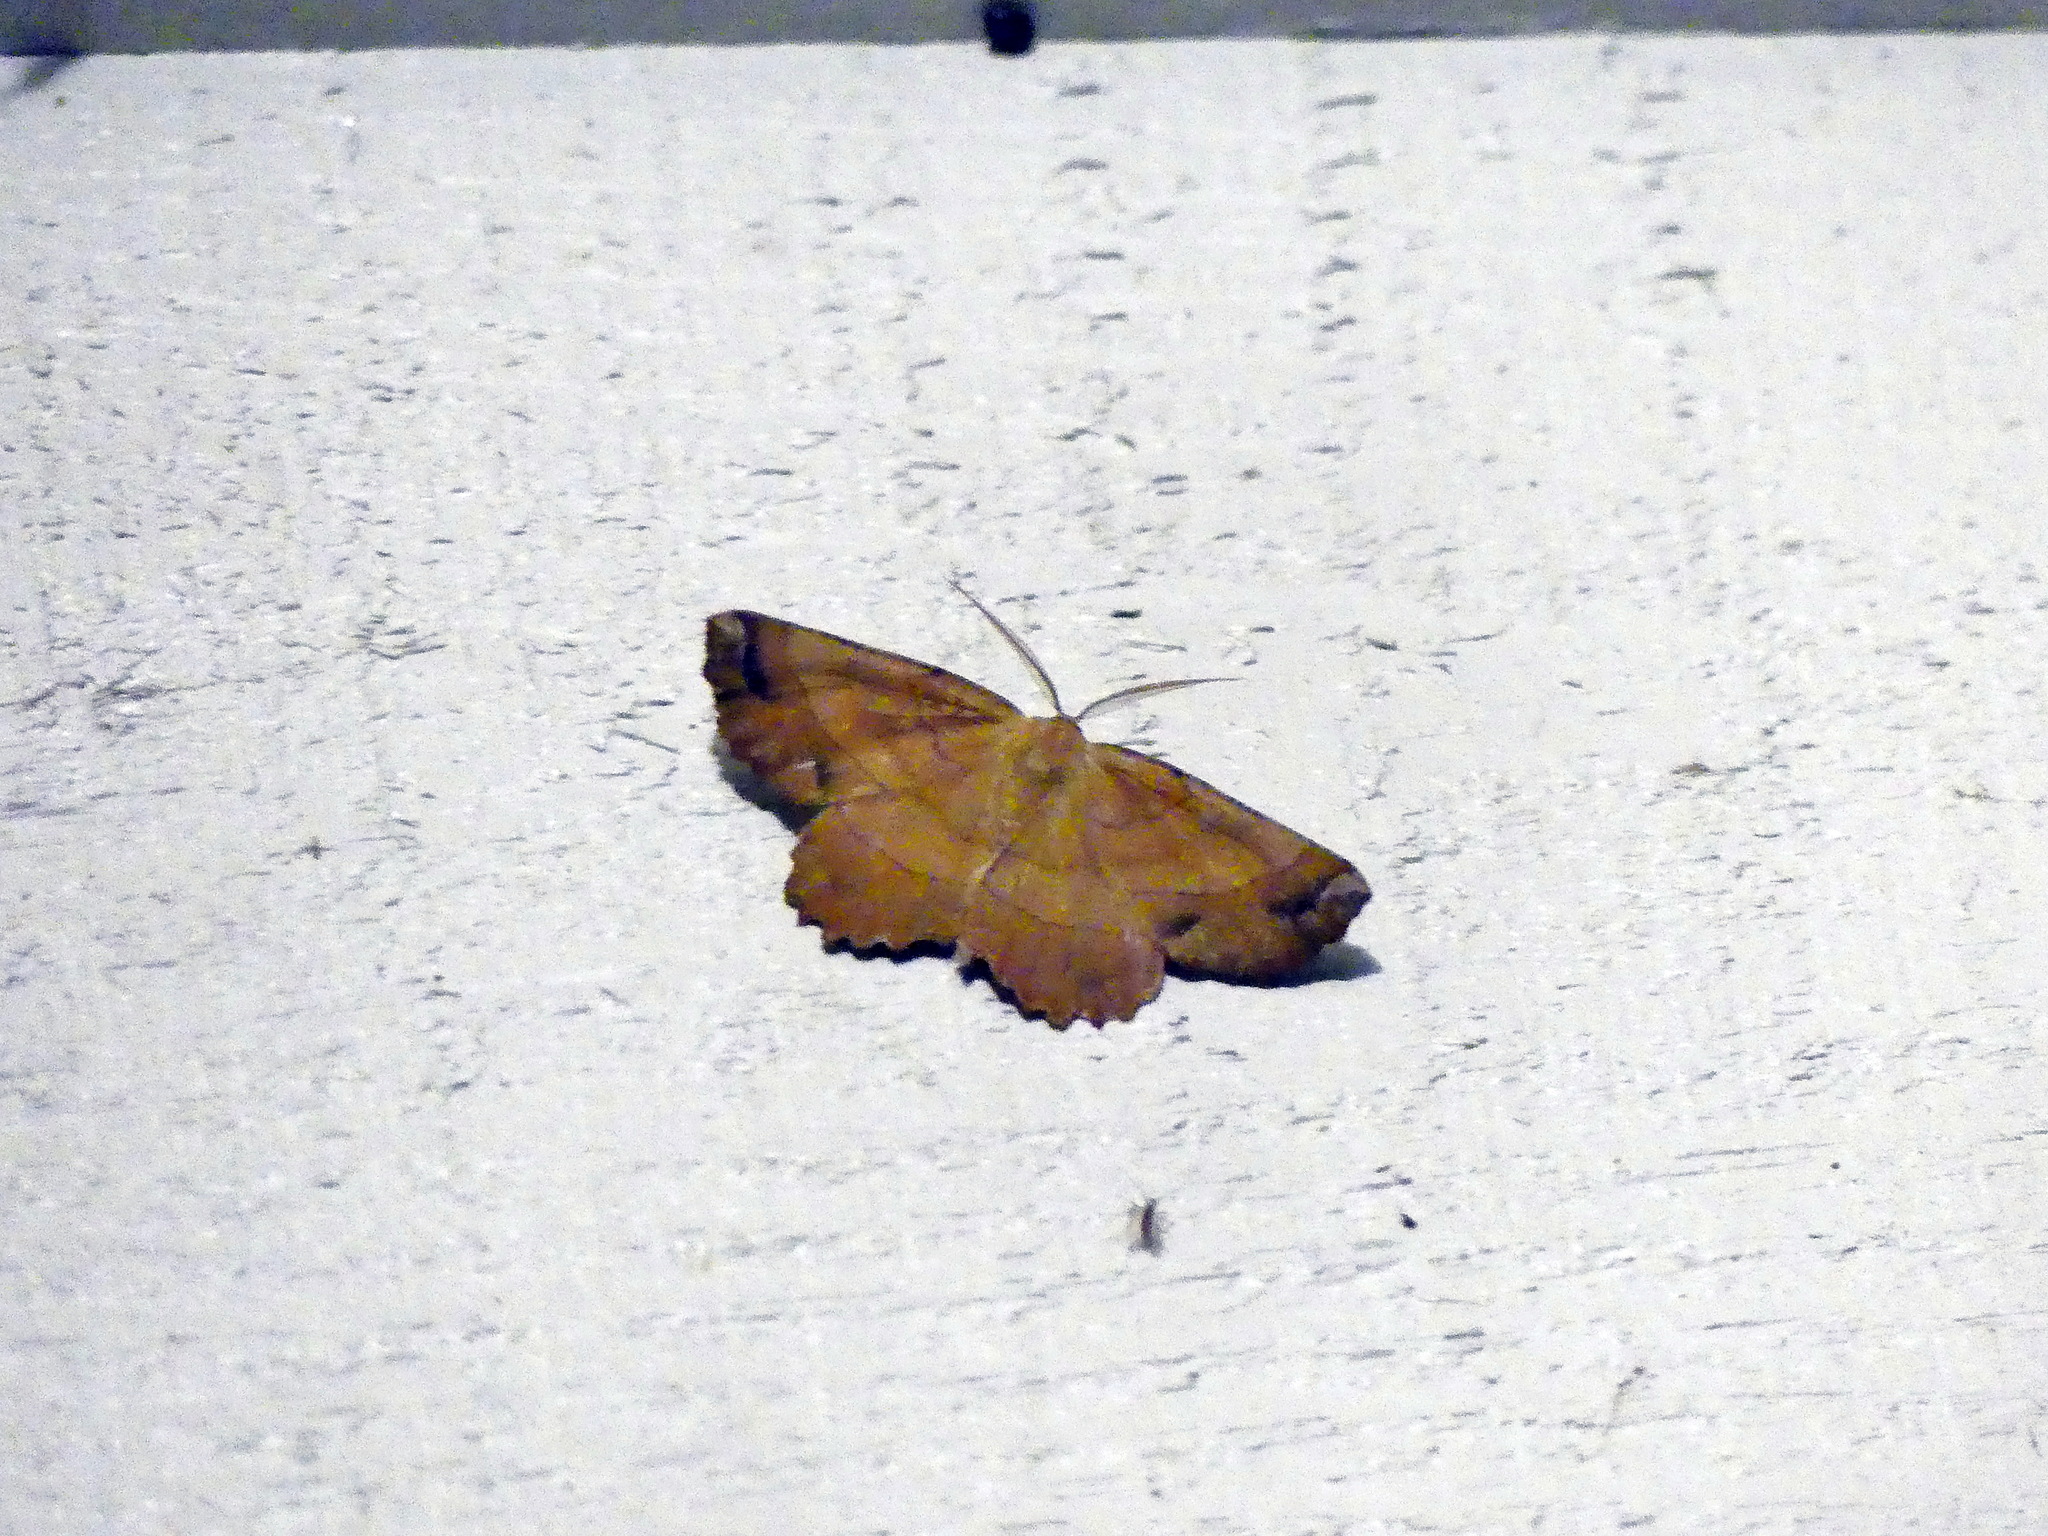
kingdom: Animalia
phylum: Arthropoda
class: Insecta
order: Lepidoptera
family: Geometridae
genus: Euchlaena
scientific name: Euchlaena johnsonaria
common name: Johnson's euchlaena
